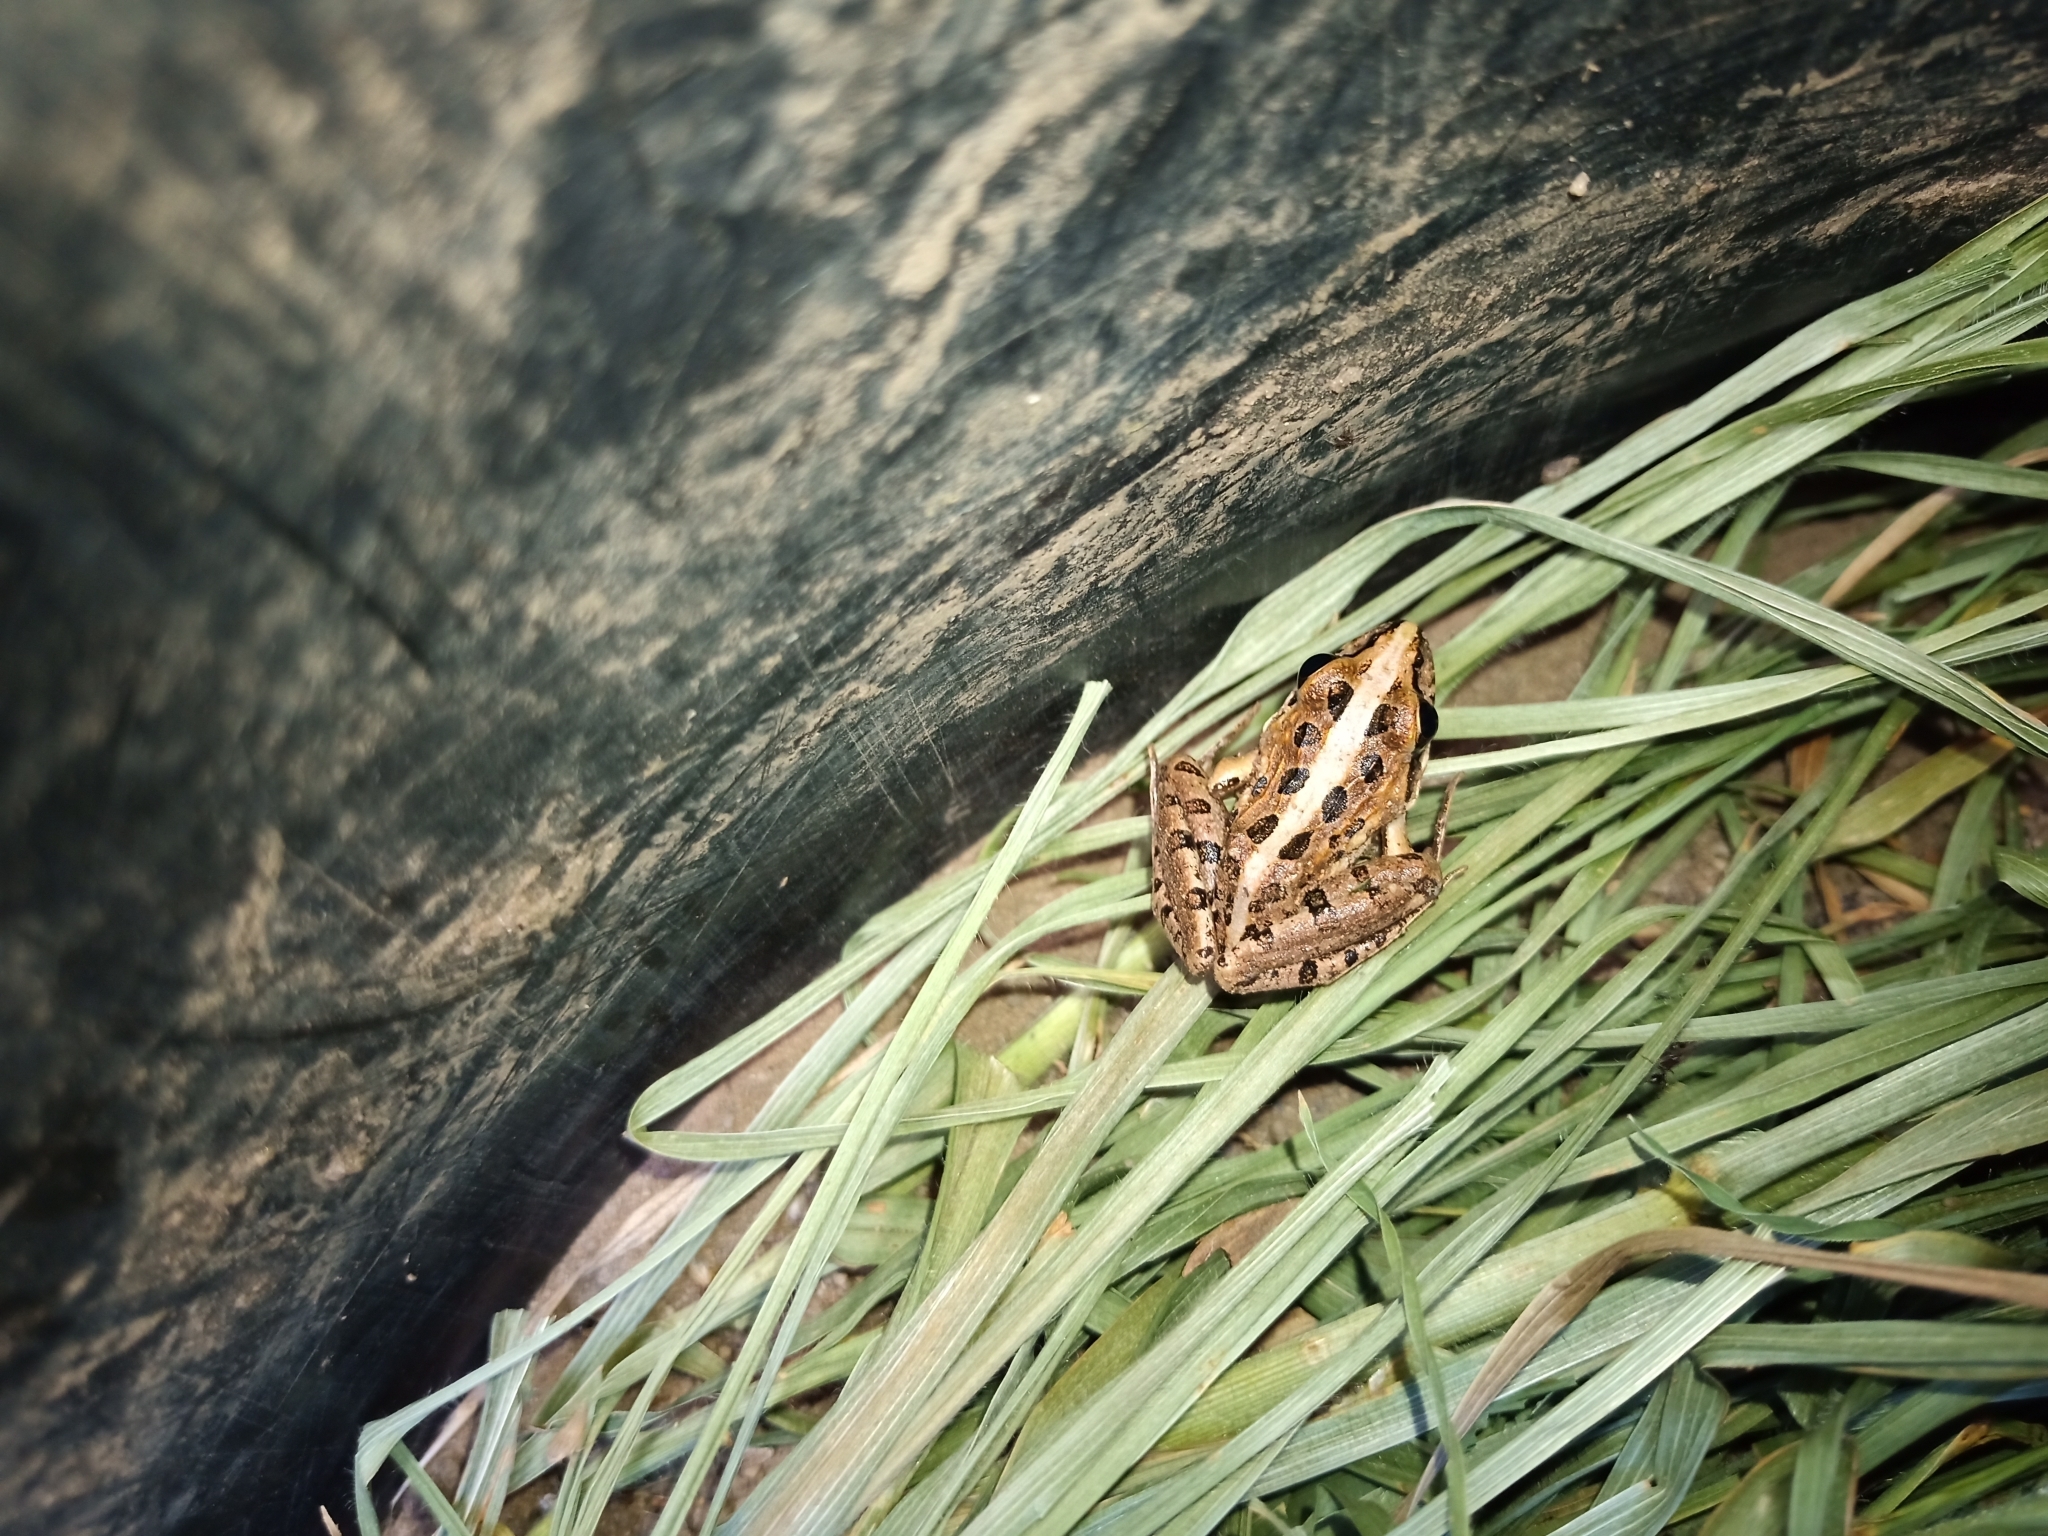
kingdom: Animalia
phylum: Chordata
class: Amphibia
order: Anura
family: Pyxicephalidae
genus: Strongylopus
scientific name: Strongylopus grayii
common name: Gray's stream frog
